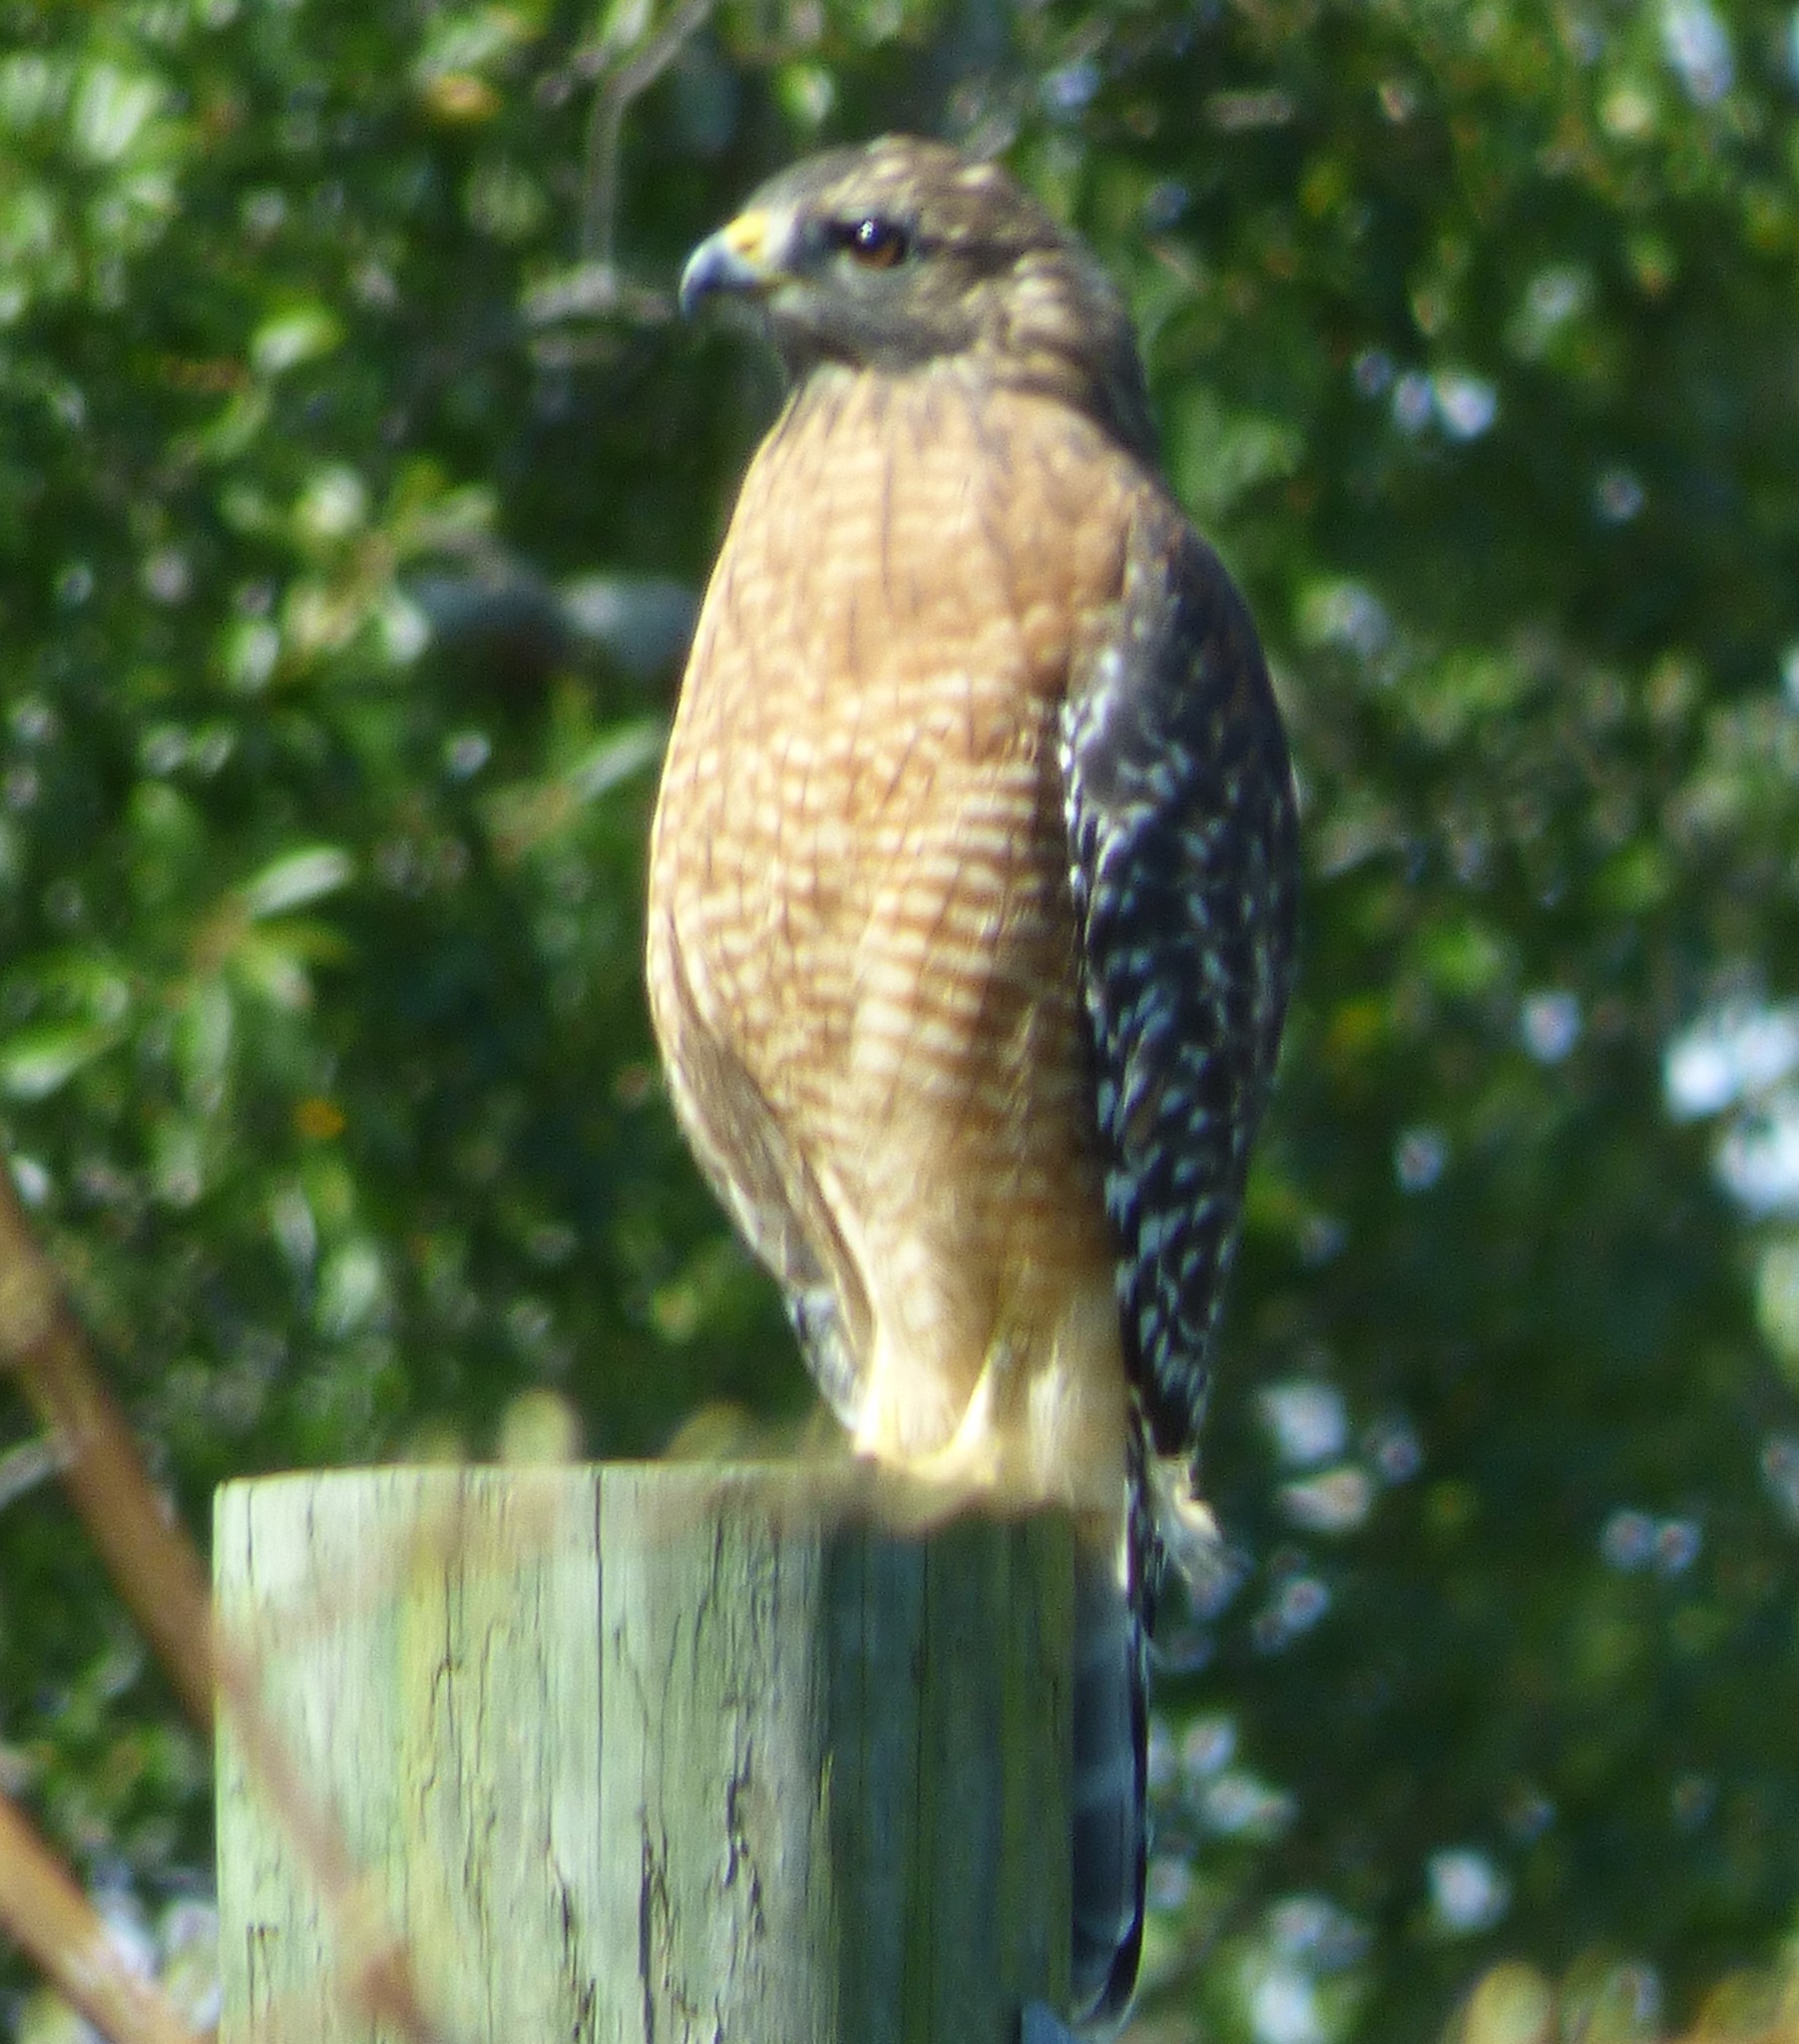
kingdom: Animalia
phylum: Chordata
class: Aves
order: Accipitriformes
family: Accipitridae
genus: Buteo
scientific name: Buteo lineatus
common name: Red-shouldered hawk
